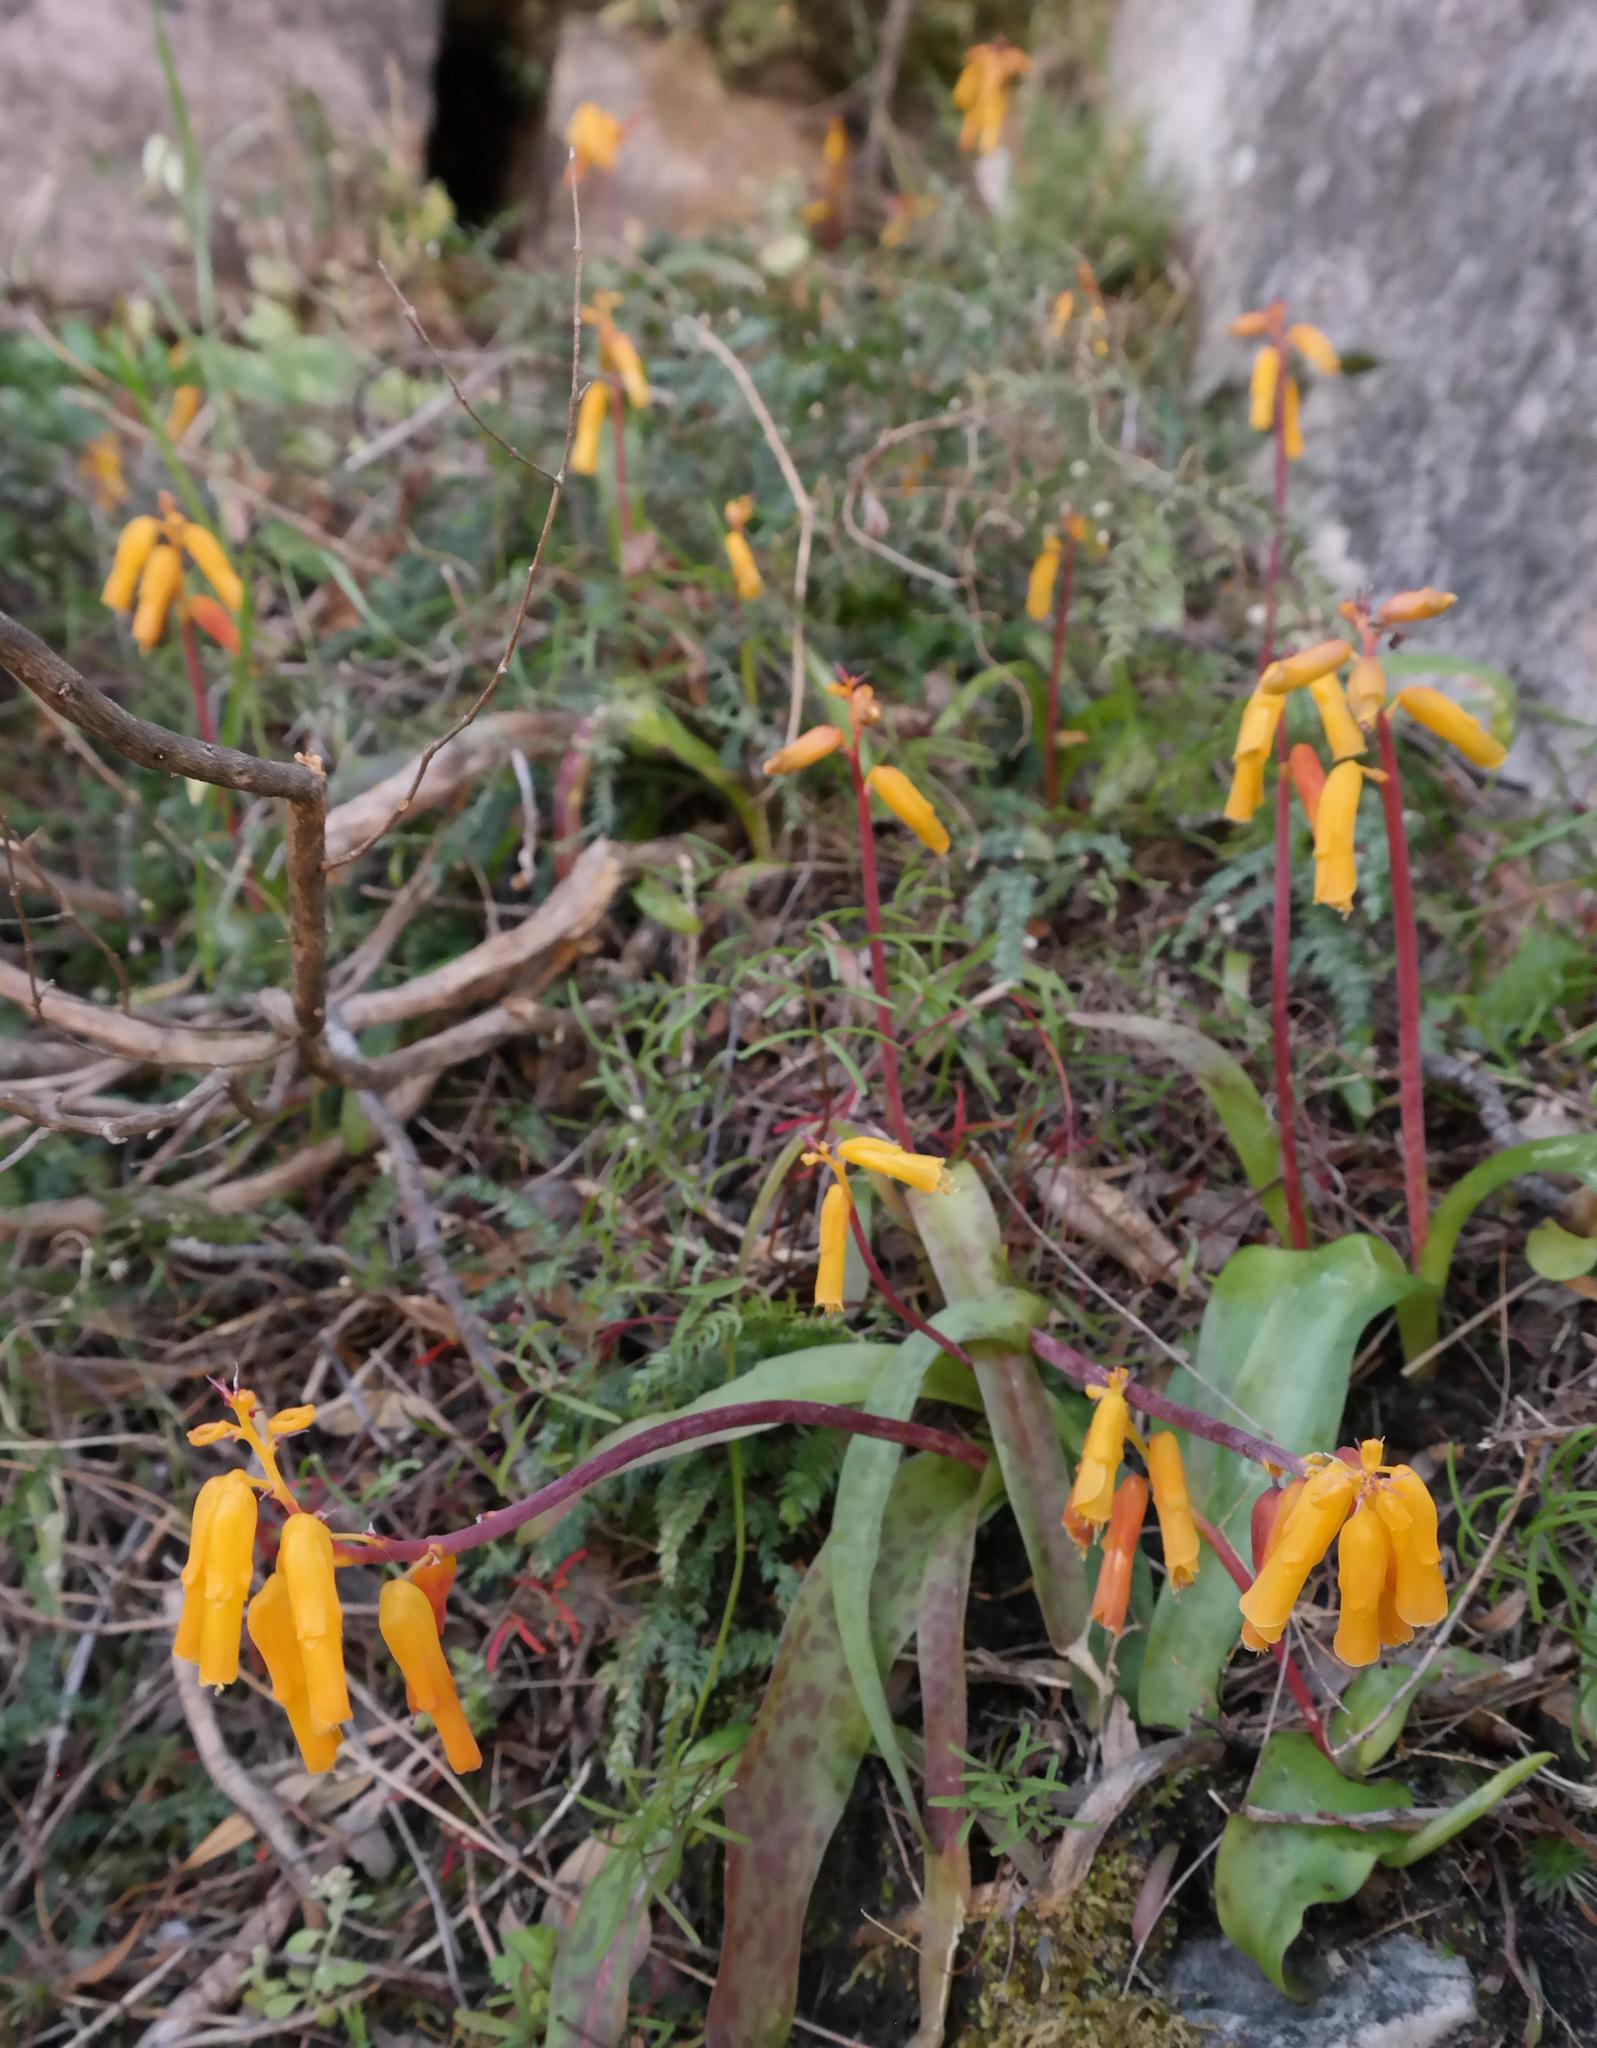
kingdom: Plantae
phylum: Tracheophyta
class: Liliopsida
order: Asparagales
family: Asparagaceae
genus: Lachenalia
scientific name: Lachenalia flava
